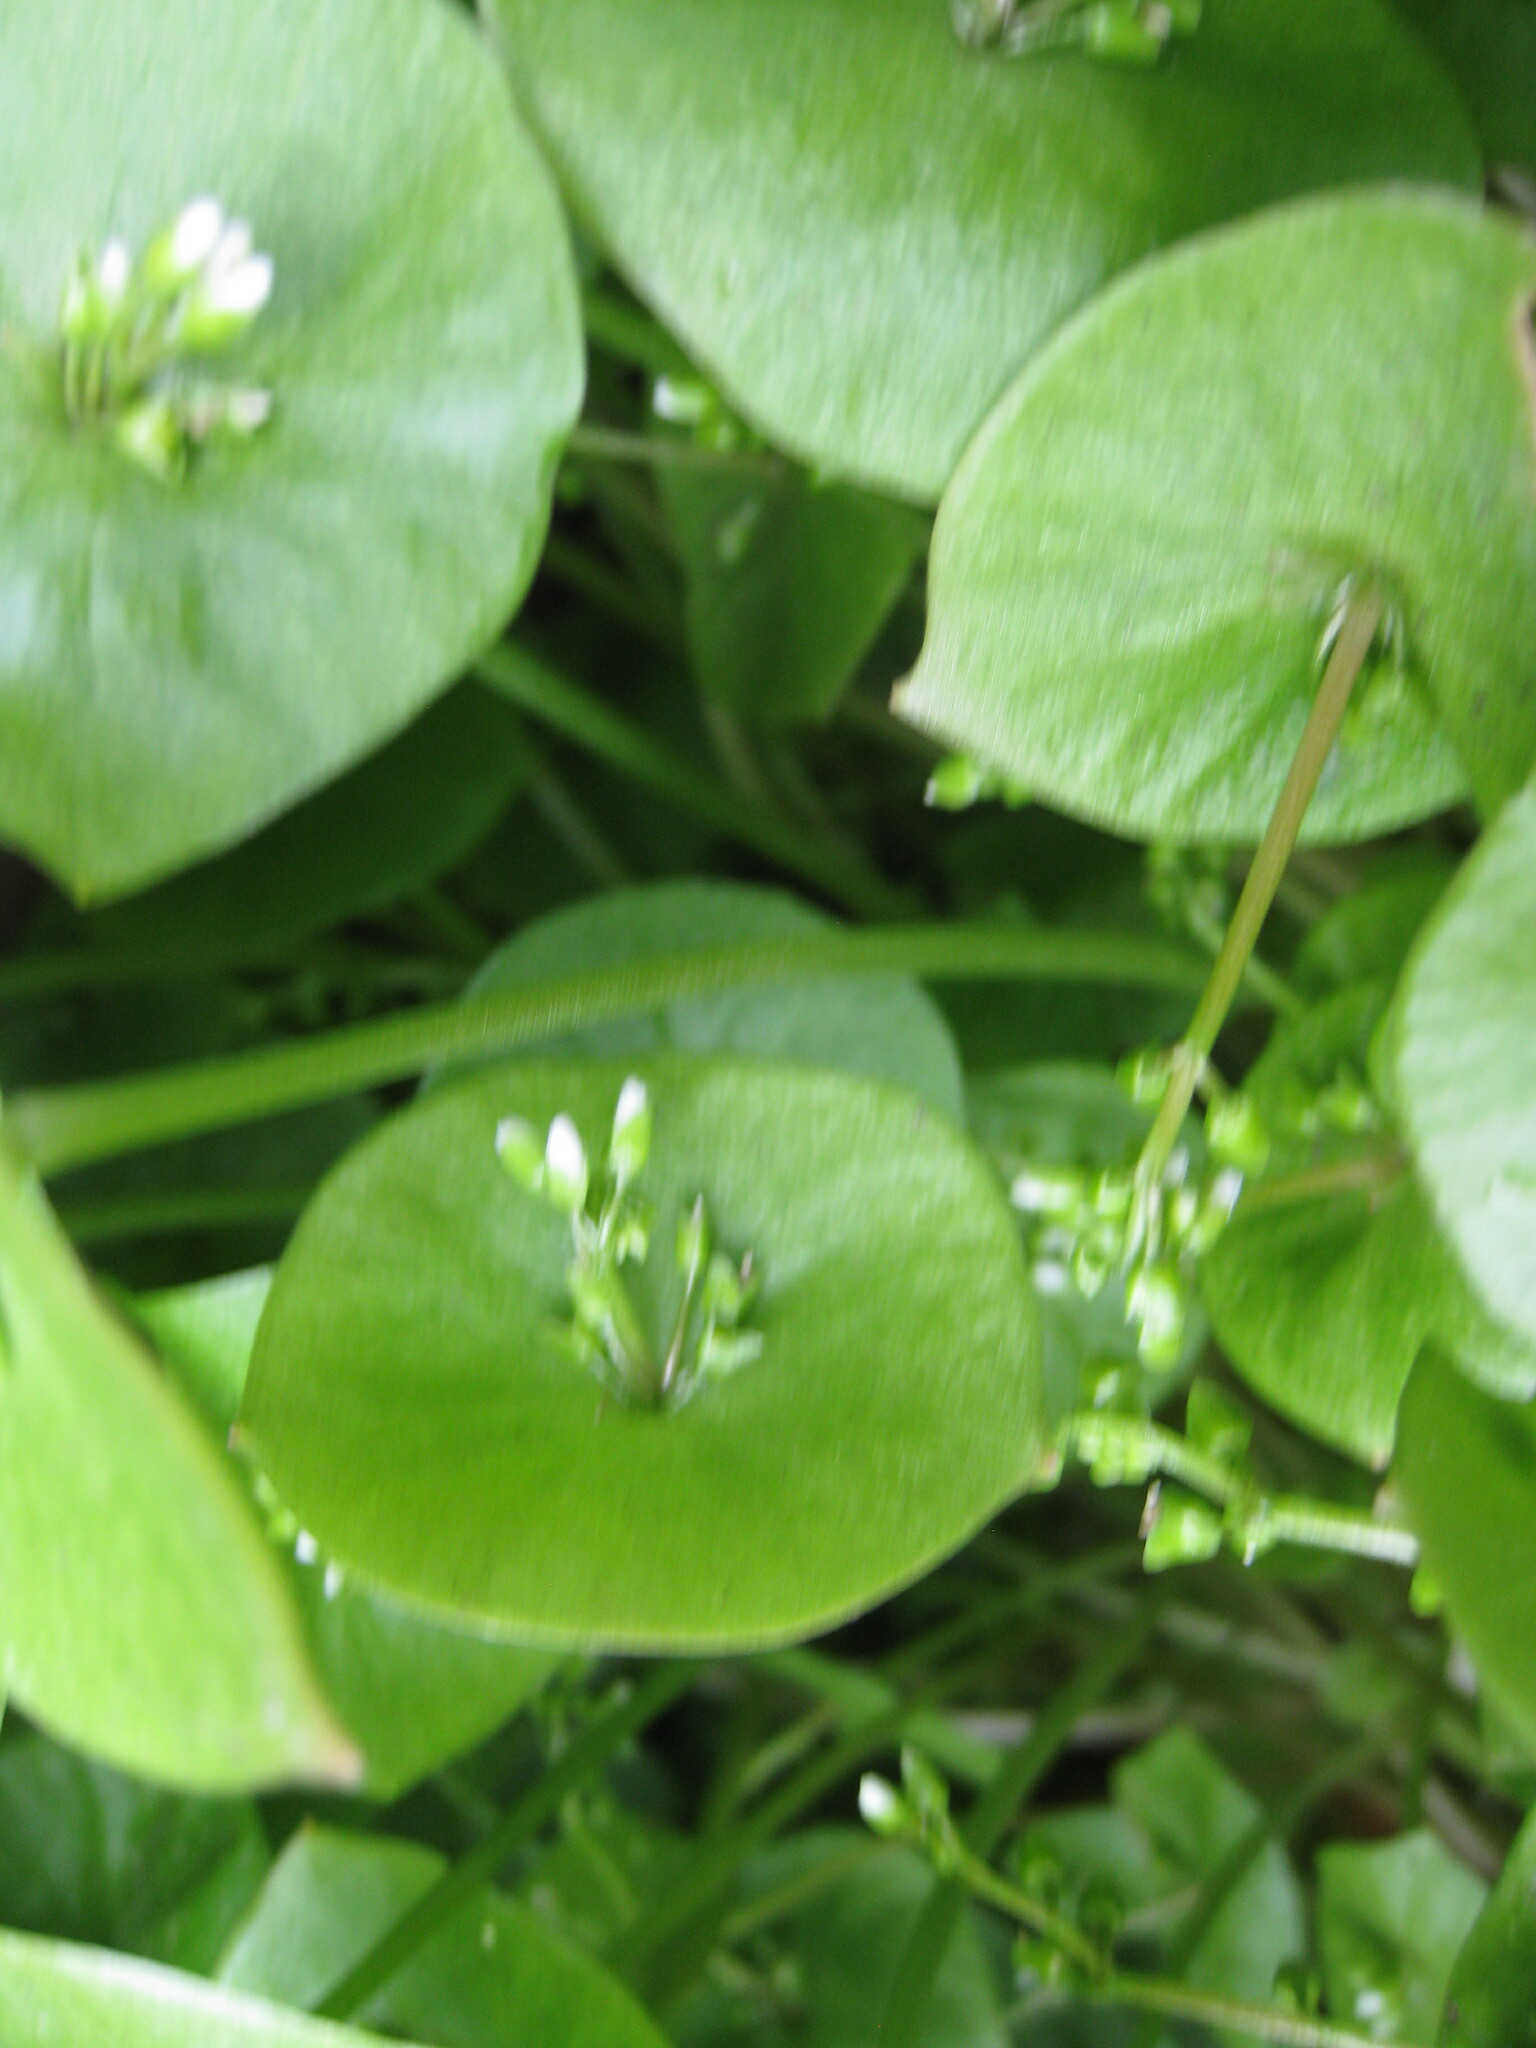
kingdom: Plantae
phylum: Tracheophyta
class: Magnoliopsida
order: Caryophyllales
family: Montiaceae
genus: Claytonia
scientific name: Claytonia perfoliata
